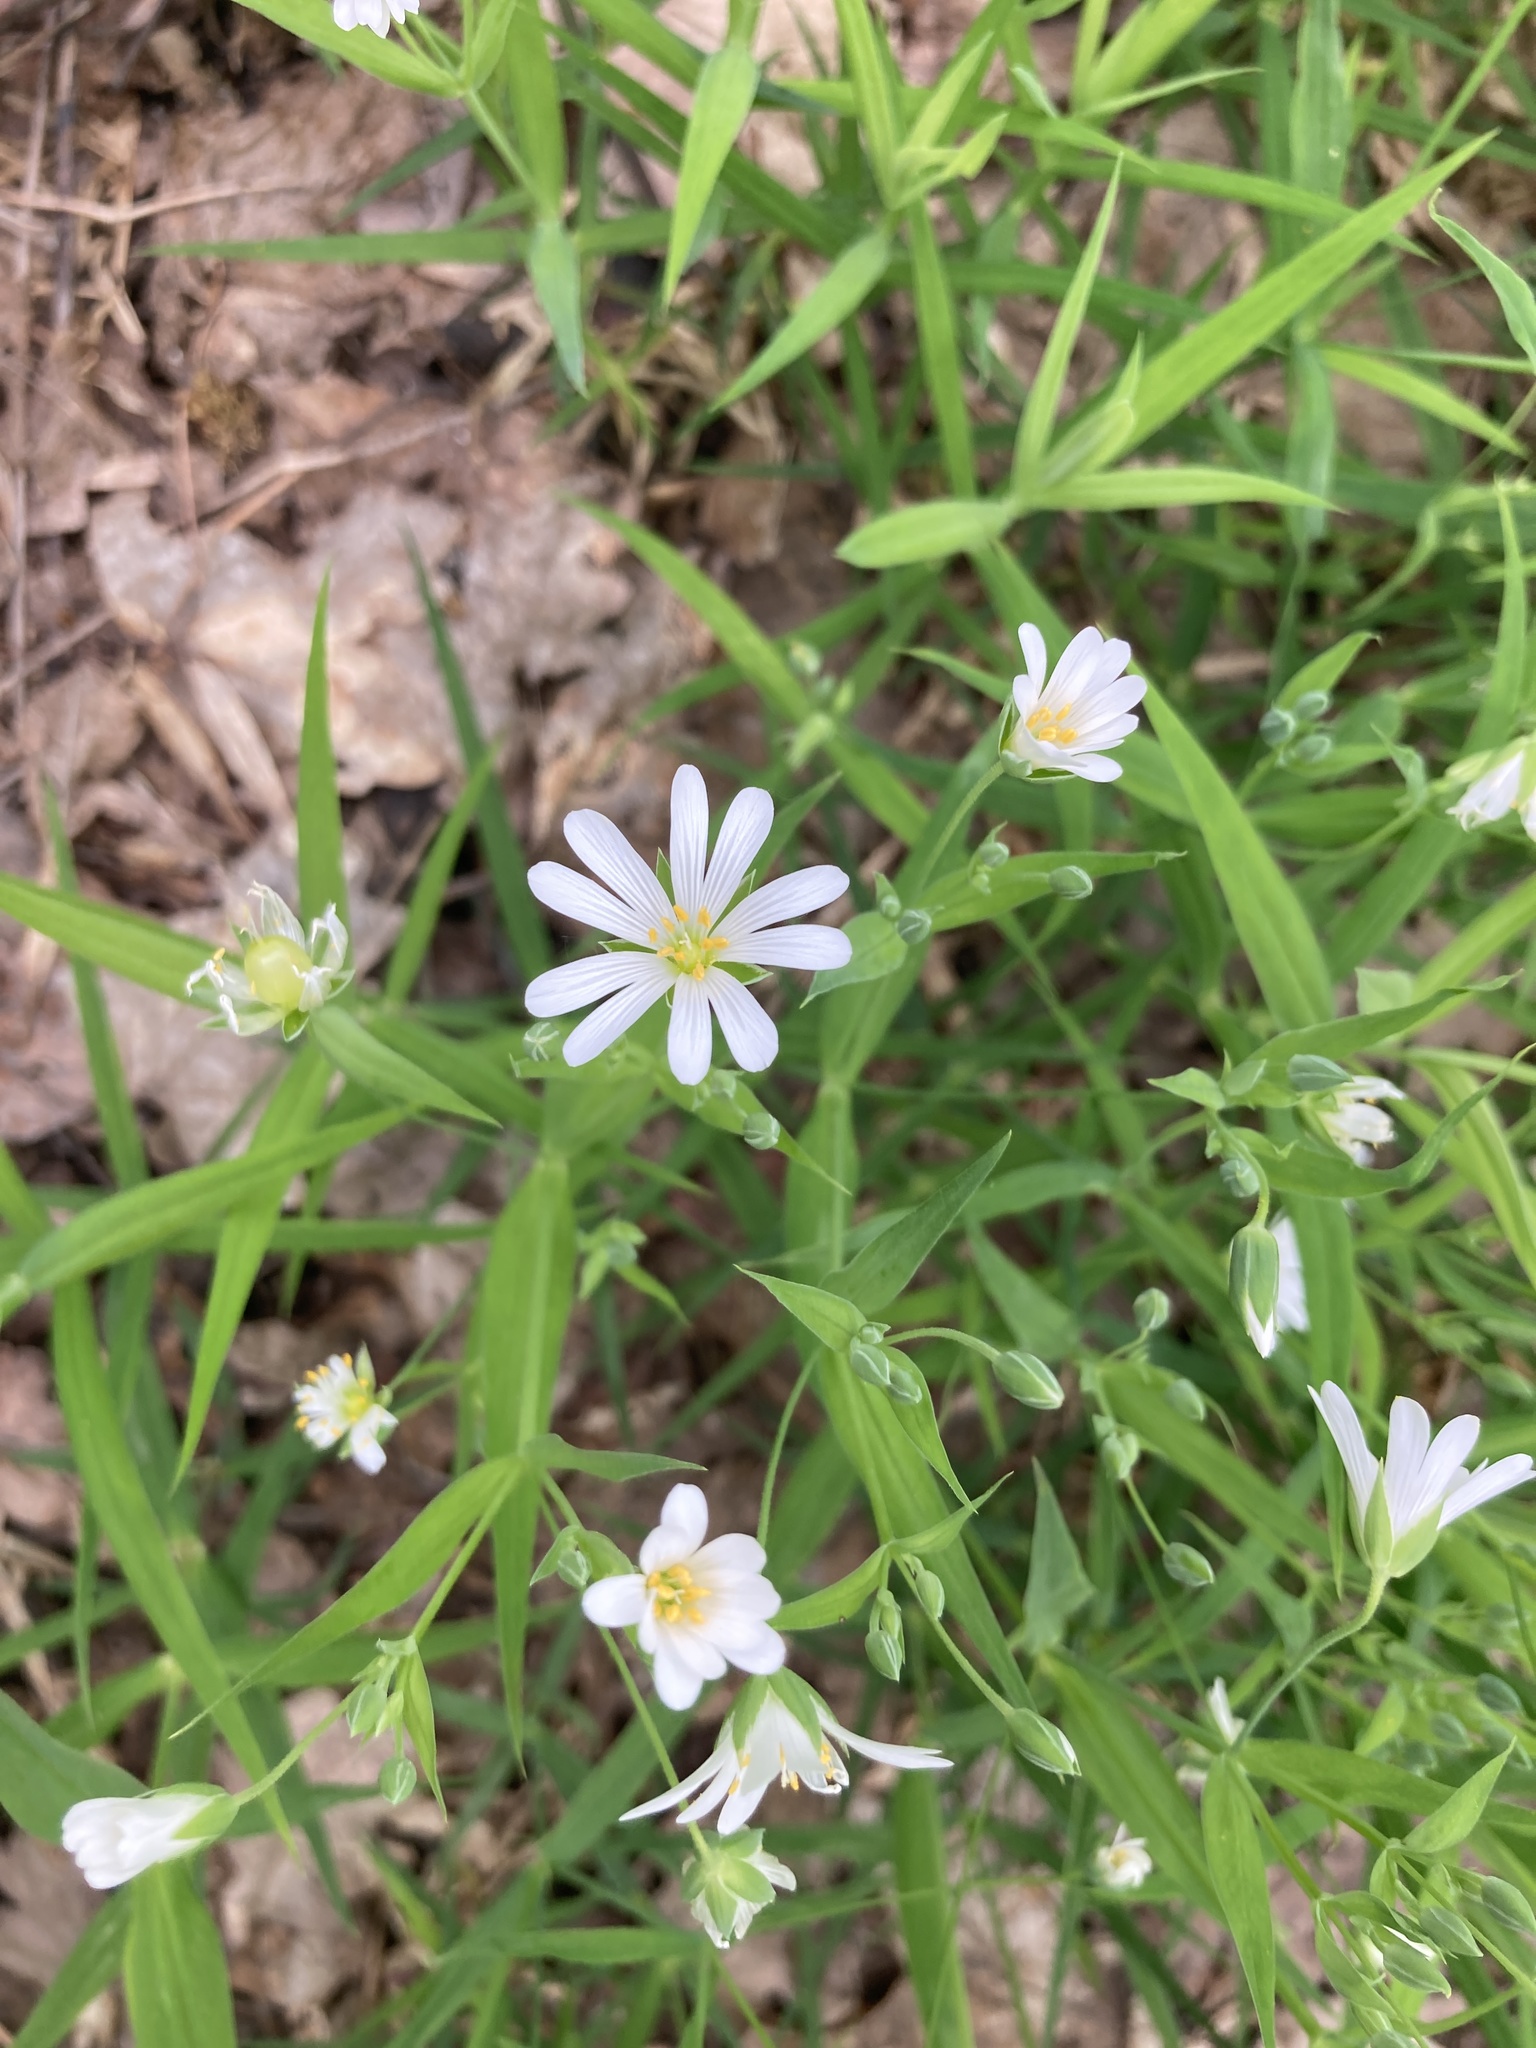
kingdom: Plantae
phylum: Tracheophyta
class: Magnoliopsida
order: Caryophyllales
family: Caryophyllaceae
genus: Rabelera
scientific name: Rabelera holostea
